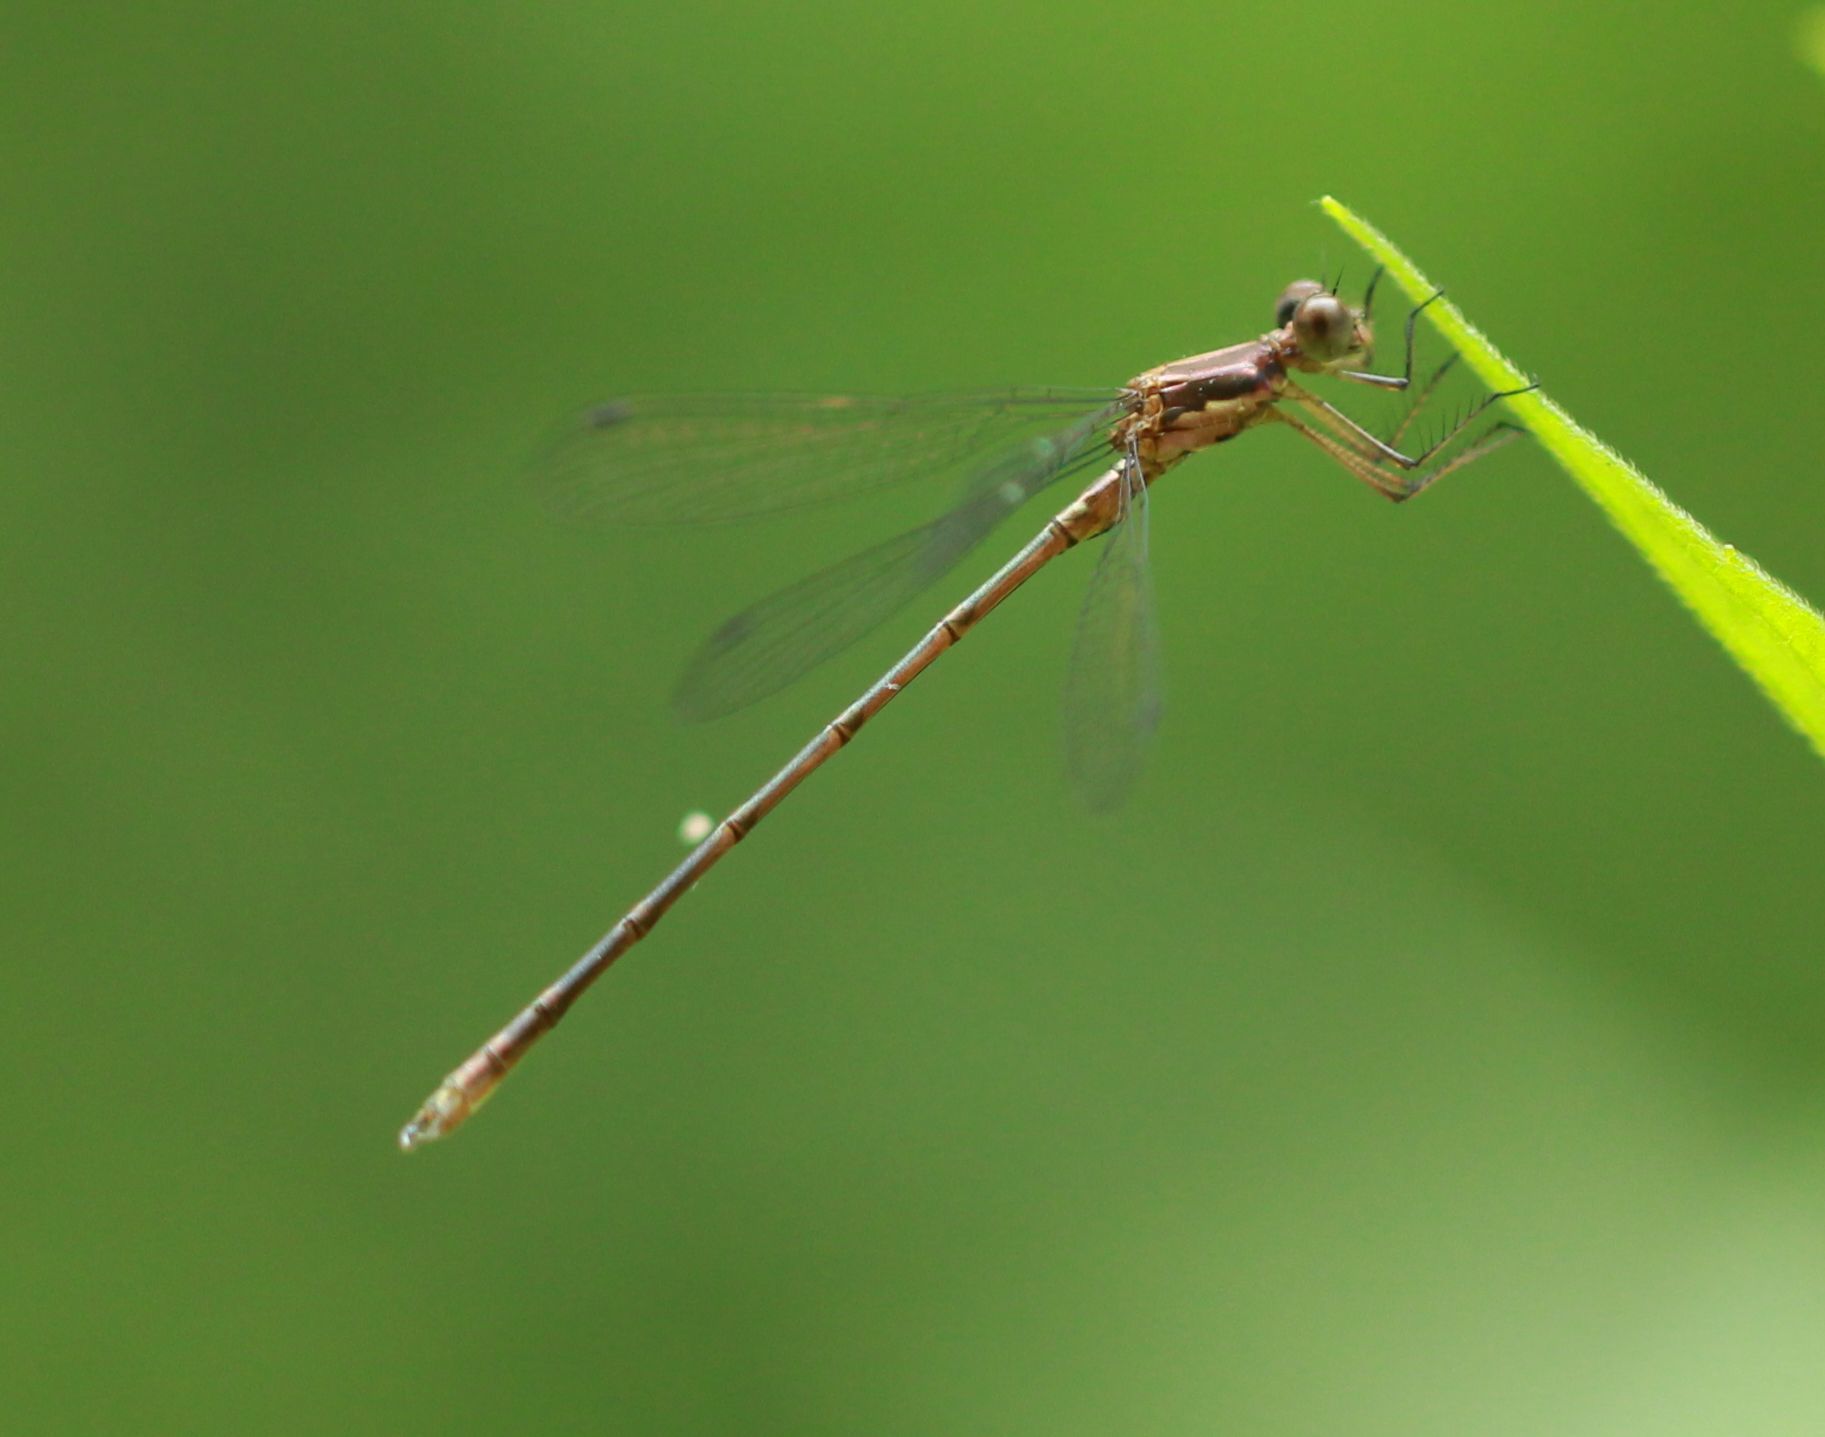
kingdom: Animalia
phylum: Arthropoda
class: Insecta
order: Odonata
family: Lestidae
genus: Lestes
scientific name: Lestes congener
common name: Spotted spreadwing
